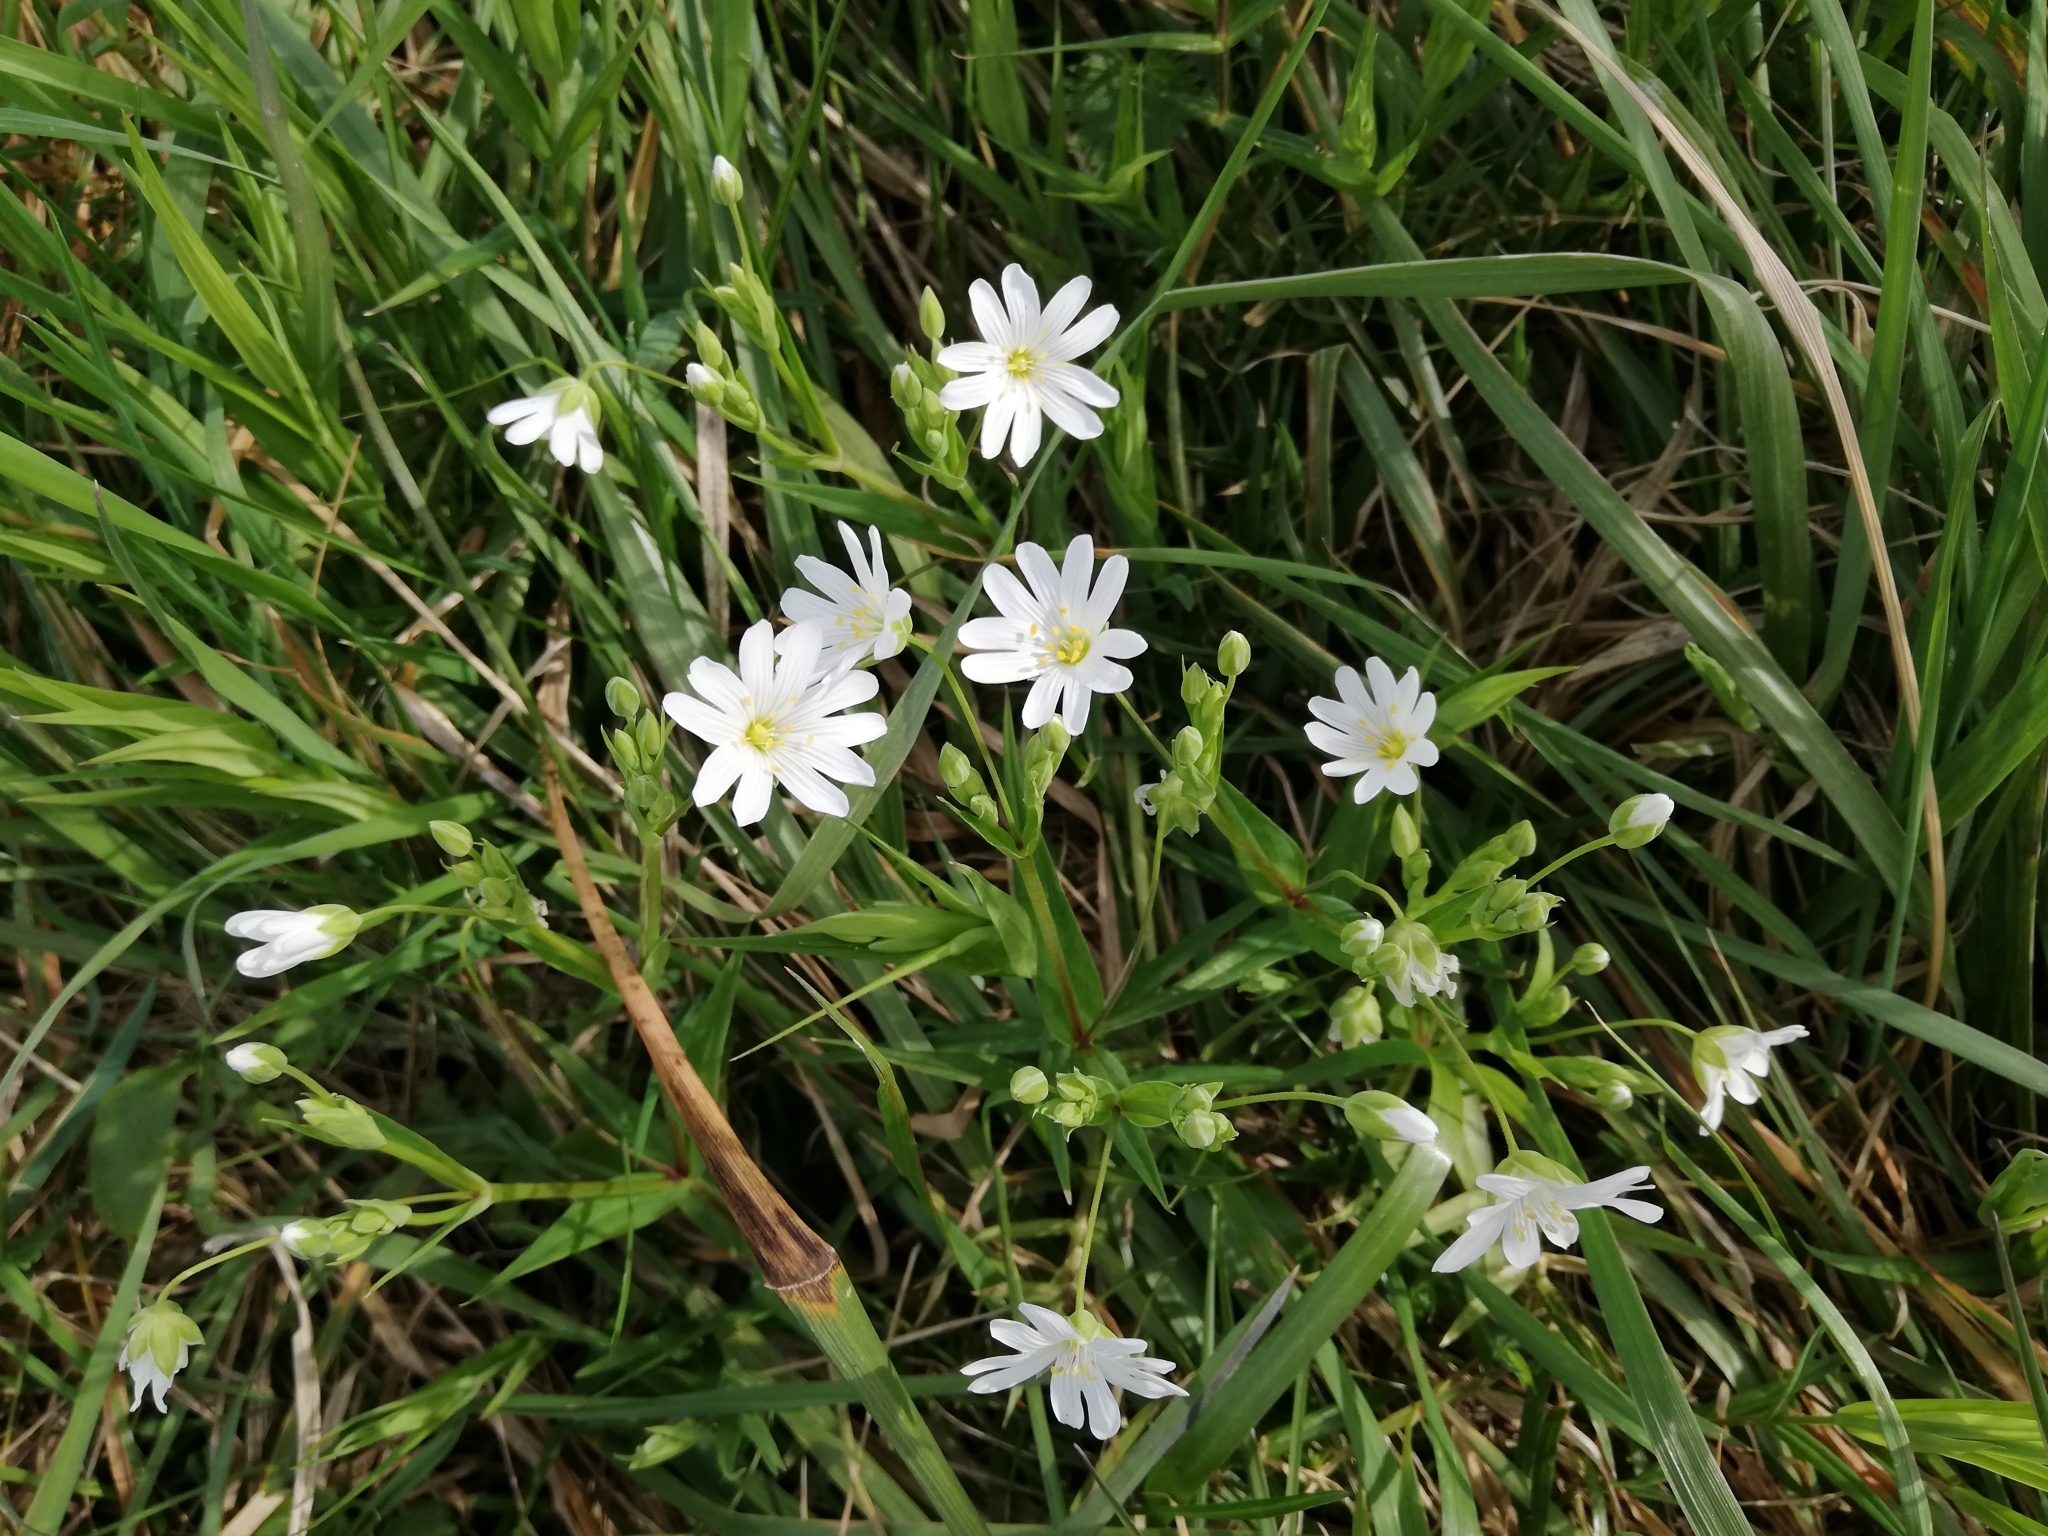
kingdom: Plantae
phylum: Tracheophyta
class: Magnoliopsida
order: Caryophyllales
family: Caryophyllaceae
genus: Rabelera
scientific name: Rabelera holostea
